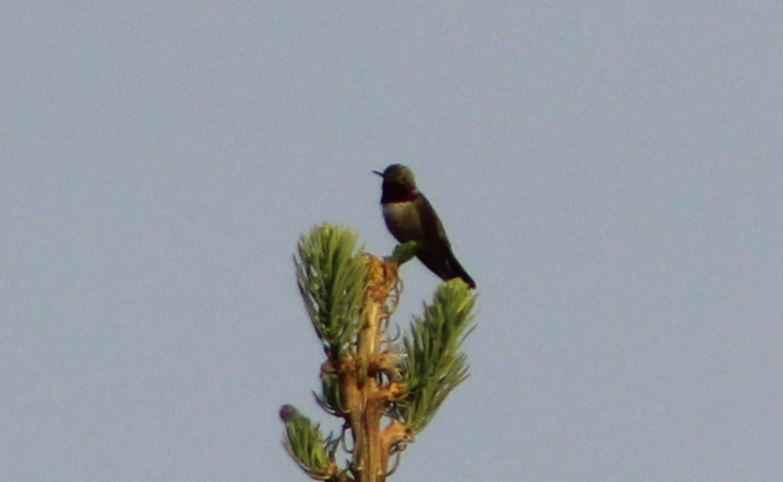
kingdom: Animalia
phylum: Chordata
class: Aves
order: Apodiformes
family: Trochilidae
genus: Selasphorus
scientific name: Selasphorus platycercus
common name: Broad-tailed hummingbird
